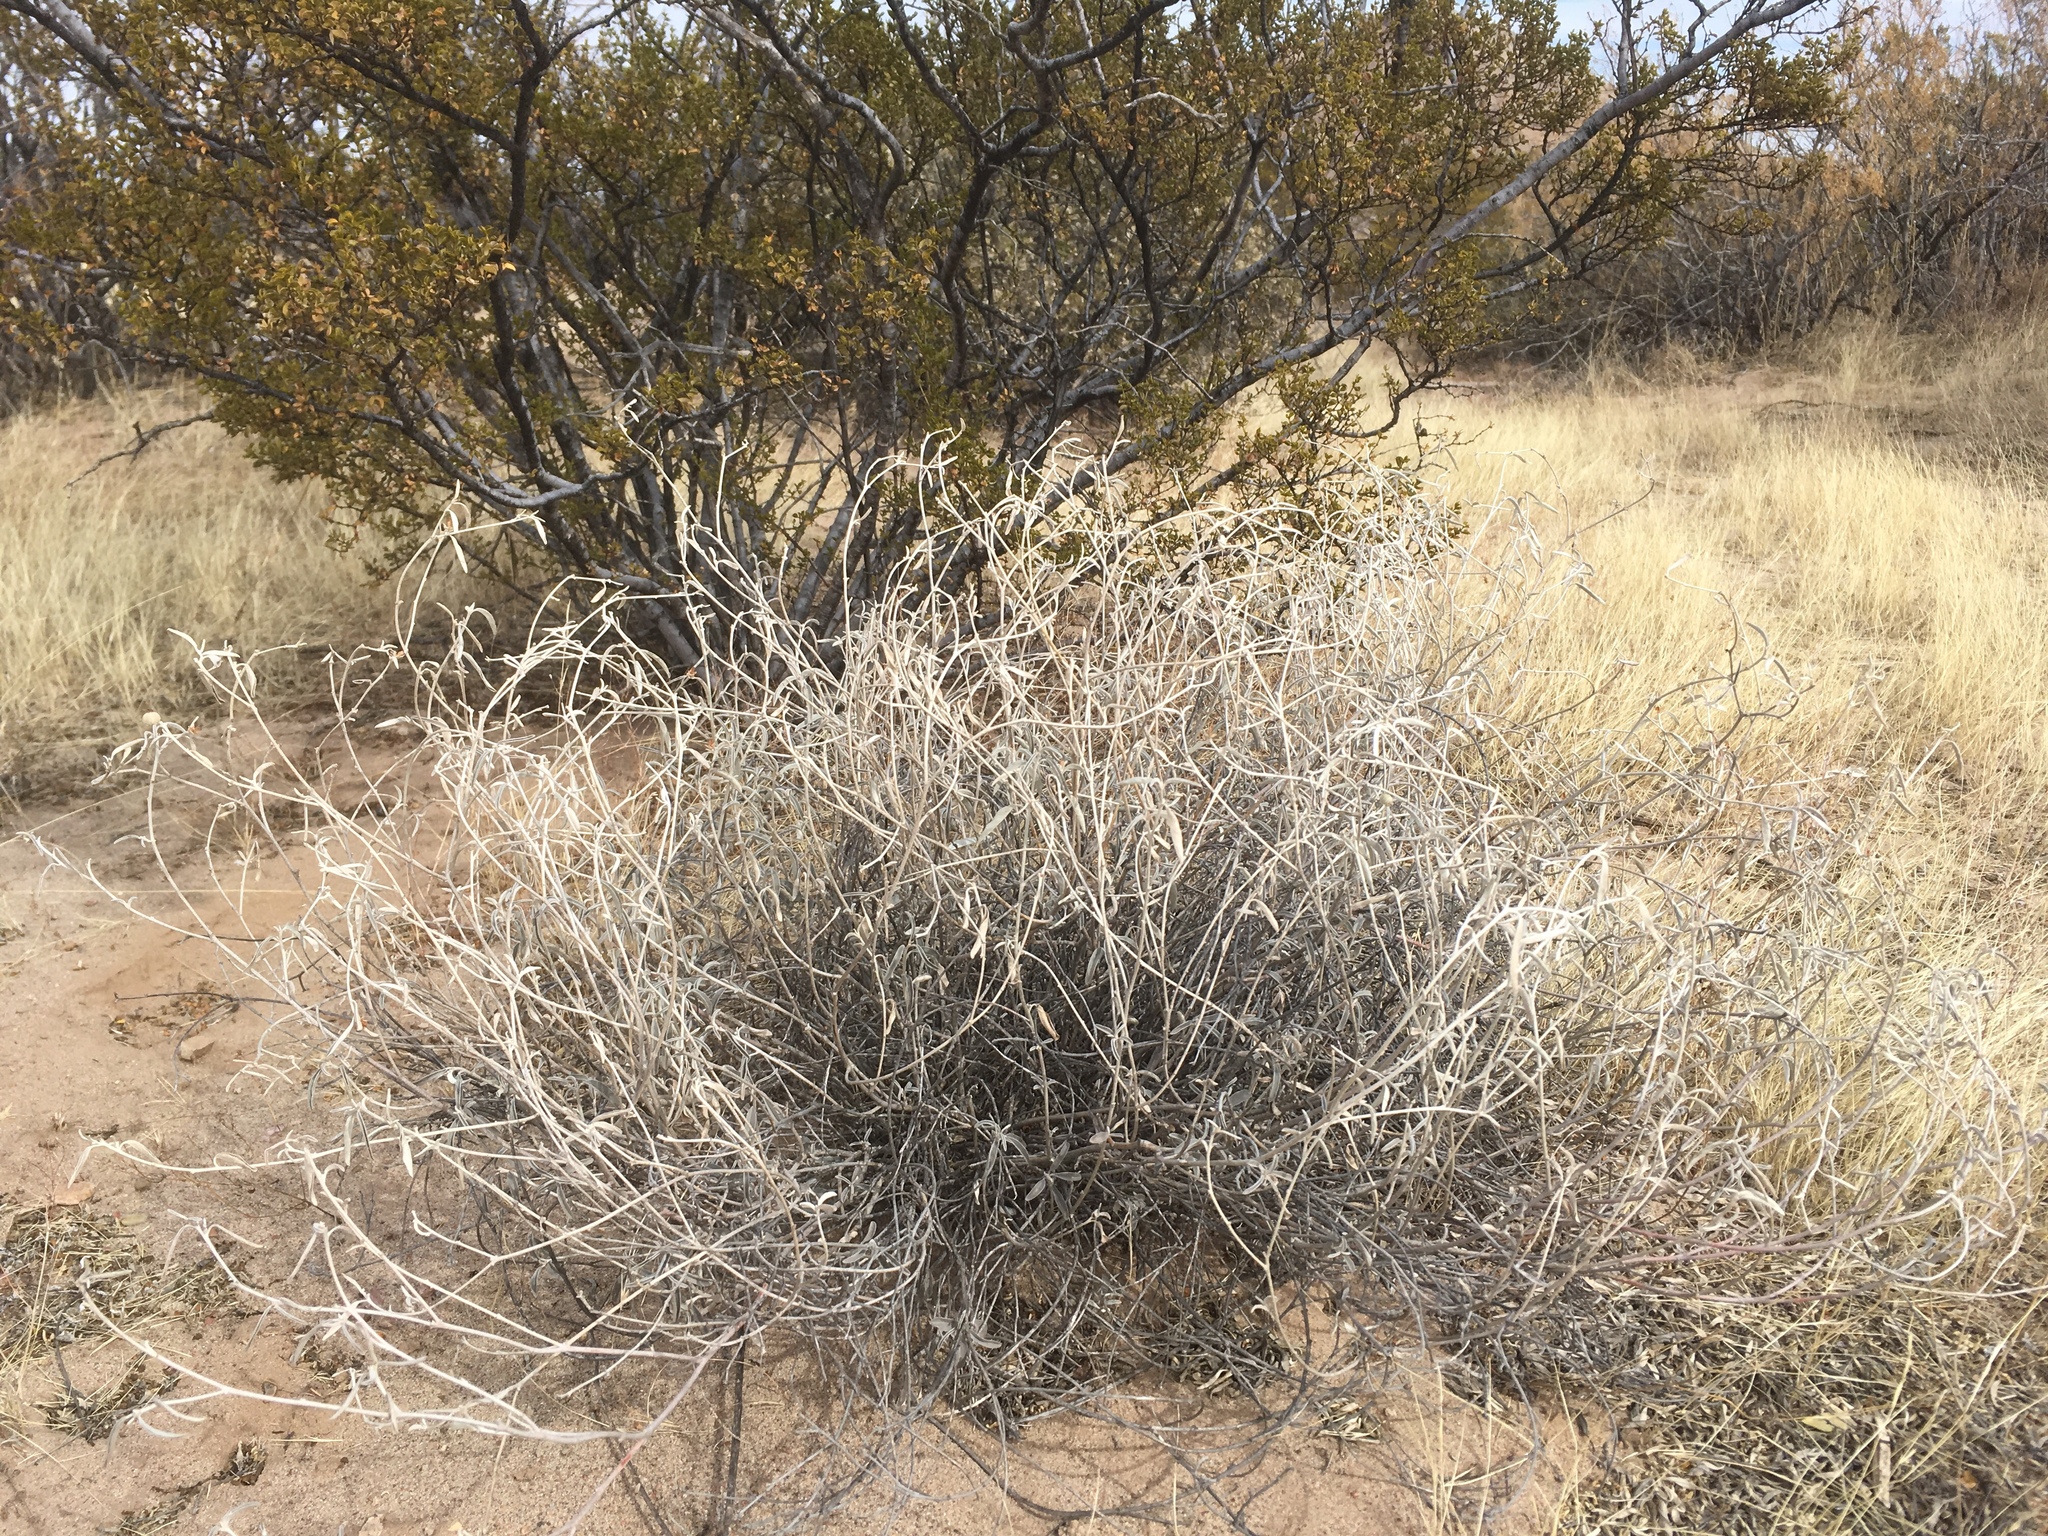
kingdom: Plantae
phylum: Tracheophyta
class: Magnoliopsida
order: Malpighiales
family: Euphorbiaceae
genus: Croton
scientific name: Croton dioicus
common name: Grassland croton
